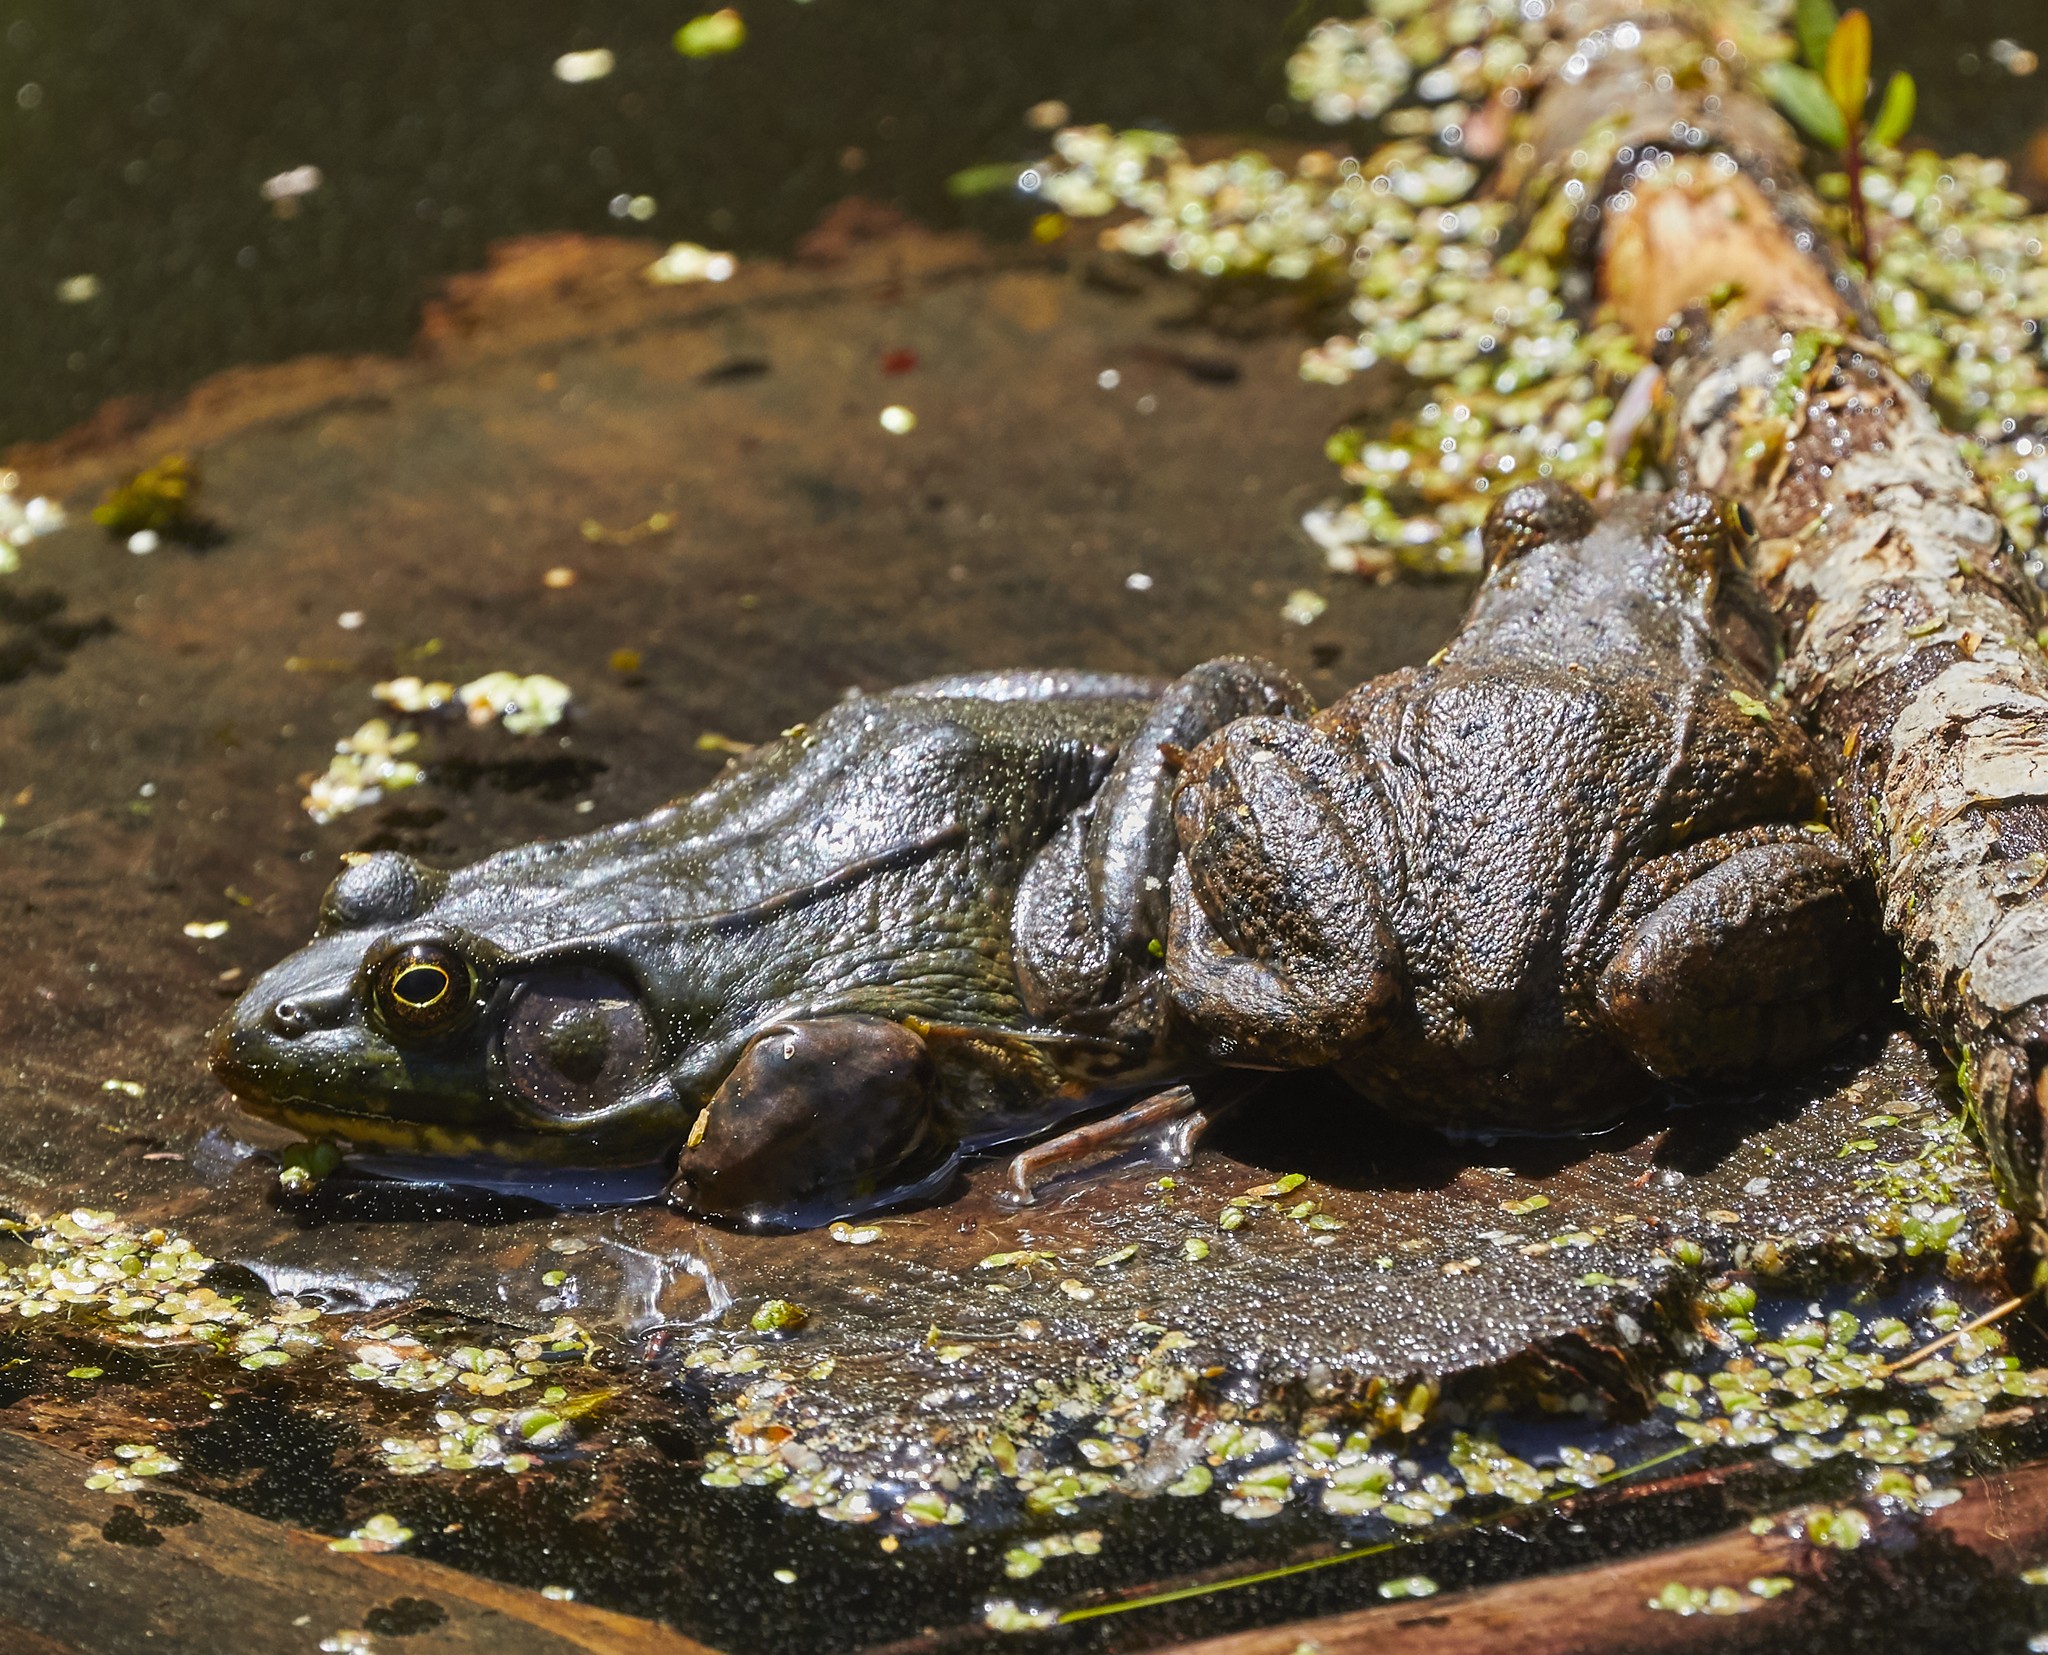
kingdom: Animalia
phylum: Chordata
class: Amphibia
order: Anura
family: Ranidae
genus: Lithobates
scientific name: Lithobates clamitans
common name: Green frog
